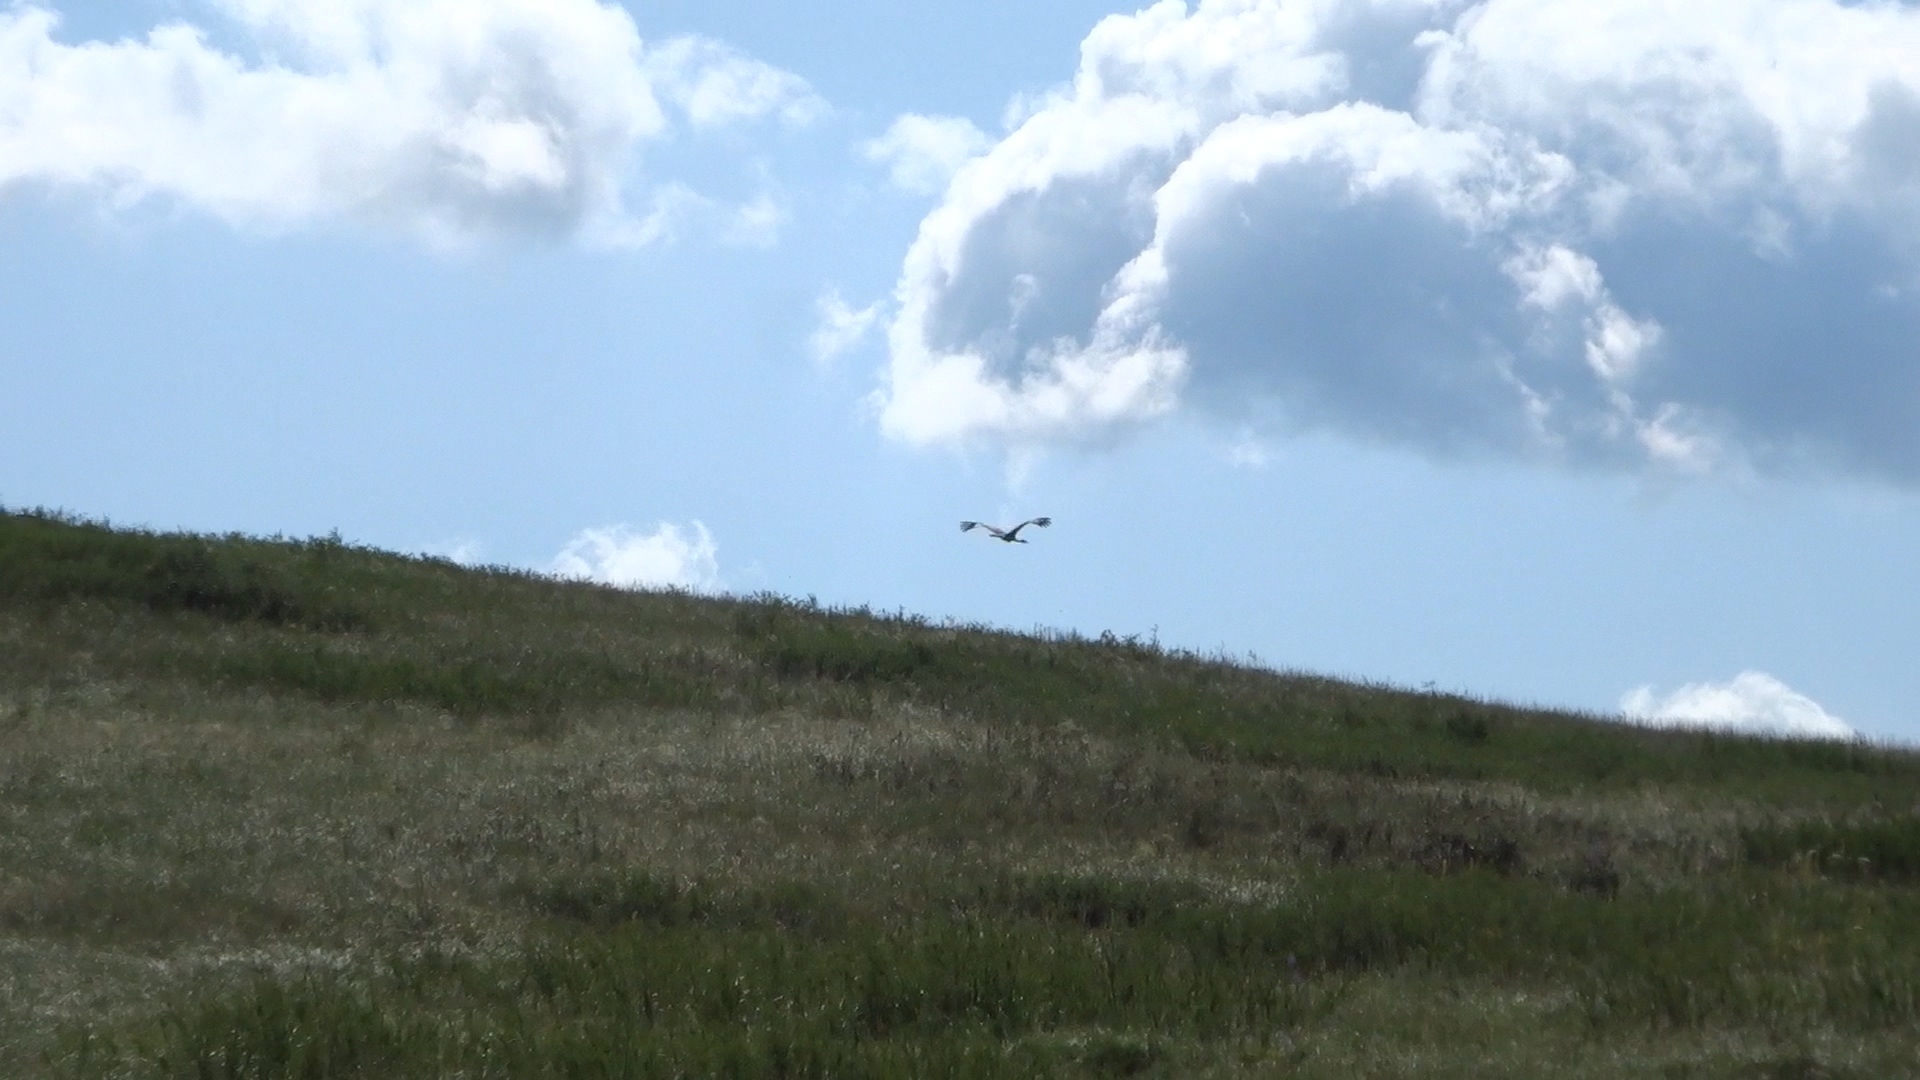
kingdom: Animalia
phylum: Chordata
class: Aves
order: Gruiformes
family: Gruidae
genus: Grus
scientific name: Grus grus
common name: Common crane
